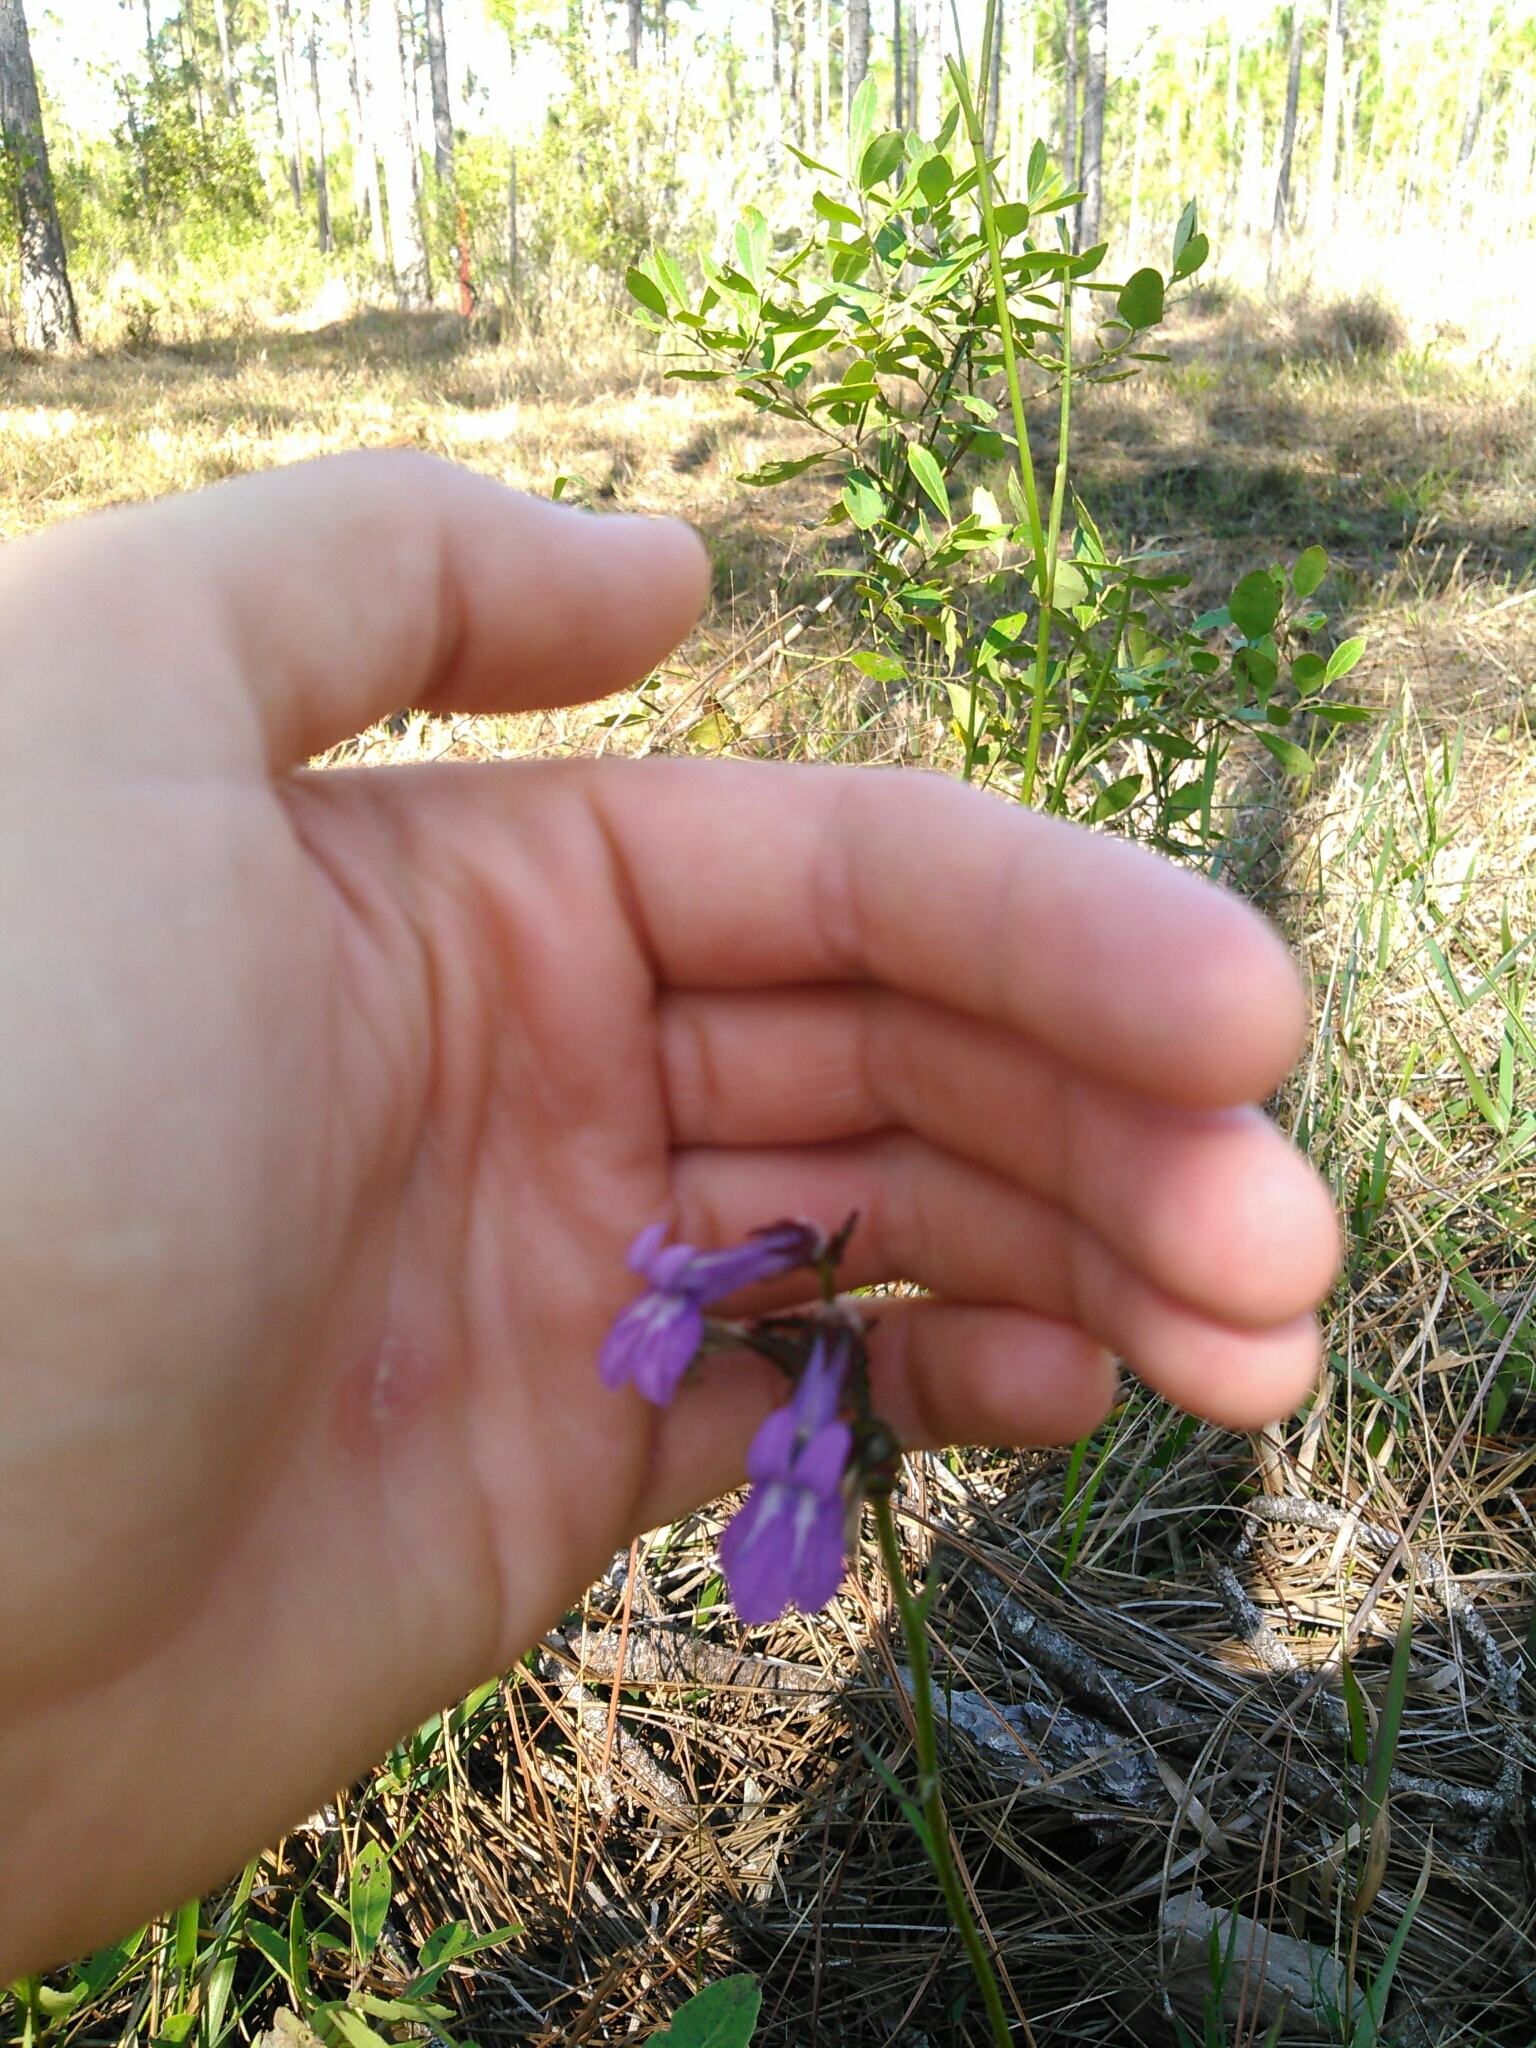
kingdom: Plantae
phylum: Tracheophyta
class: Magnoliopsida
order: Asterales
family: Campanulaceae
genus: Lobelia
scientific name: Lobelia glandulosa
